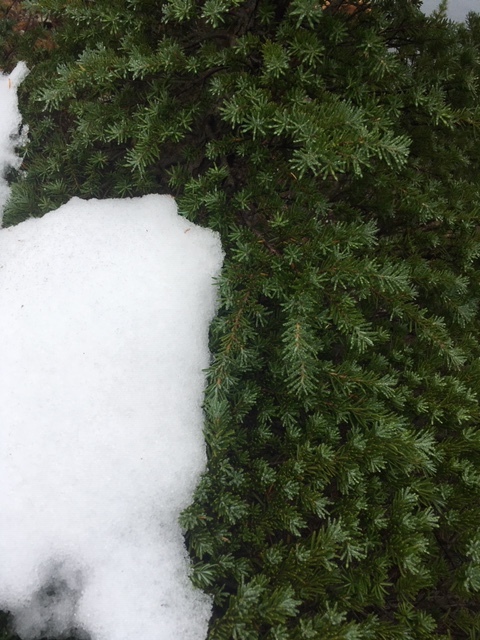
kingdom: Plantae
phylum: Tracheophyta
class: Pinopsida
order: Pinales
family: Pinaceae
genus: Tsuga
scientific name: Tsuga mertensiana
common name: Mountain hemlock
